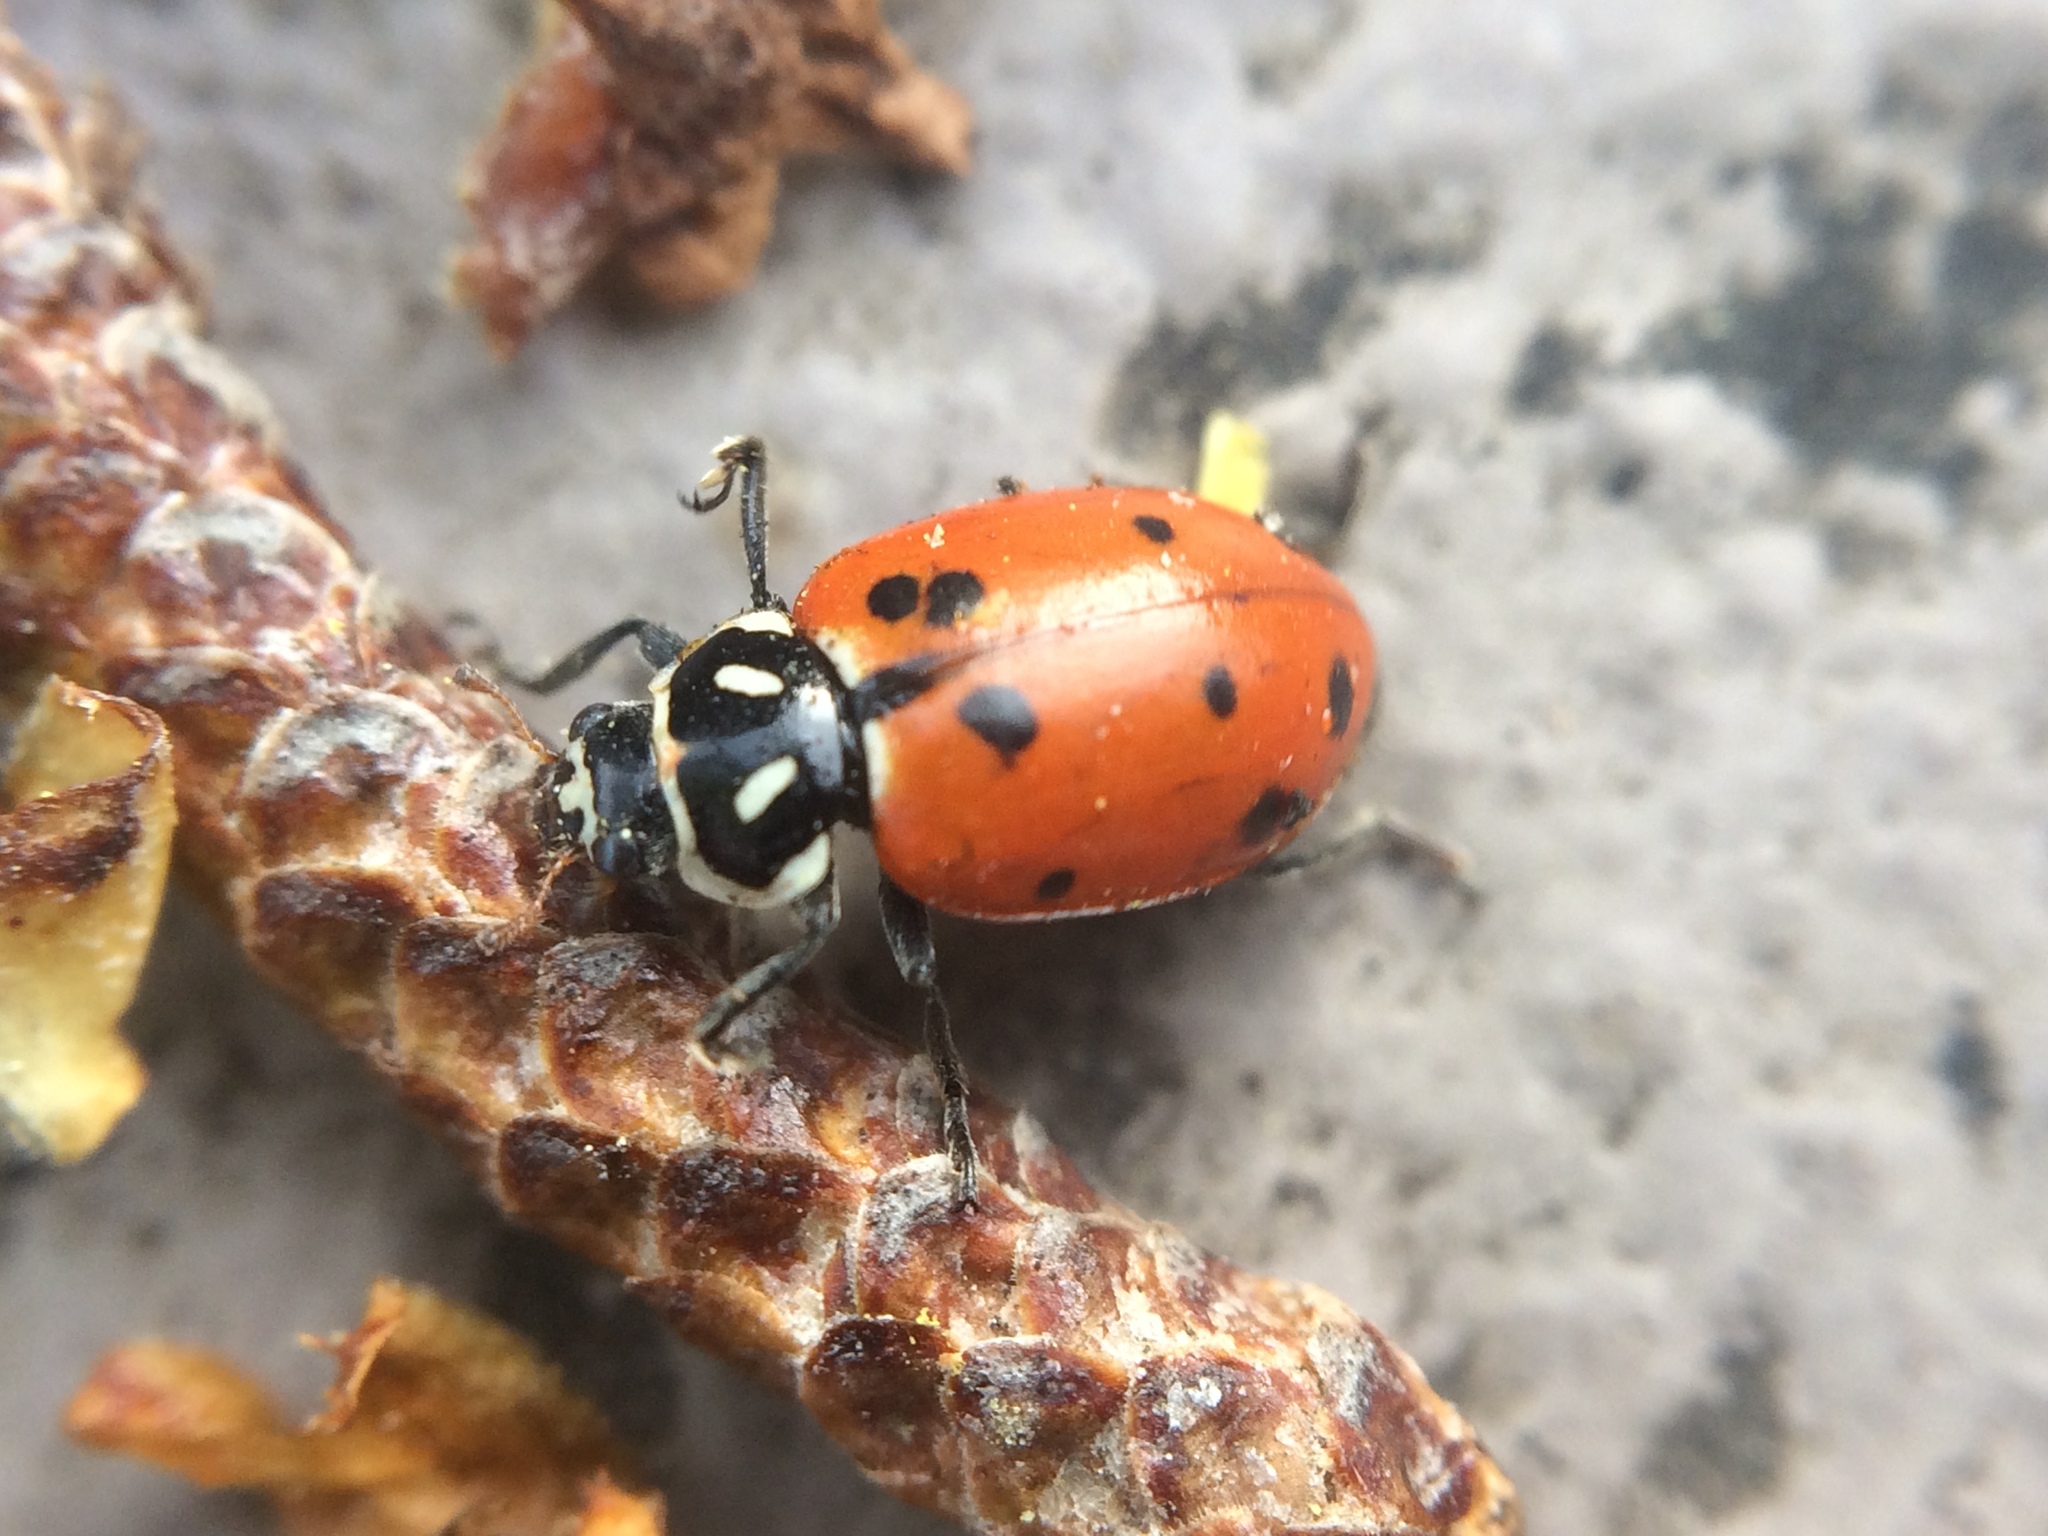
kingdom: Animalia
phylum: Arthropoda
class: Insecta
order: Coleoptera
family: Coccinellidae
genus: Hippodamia
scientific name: Hippodamia convergens
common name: Convergent lady beetle
